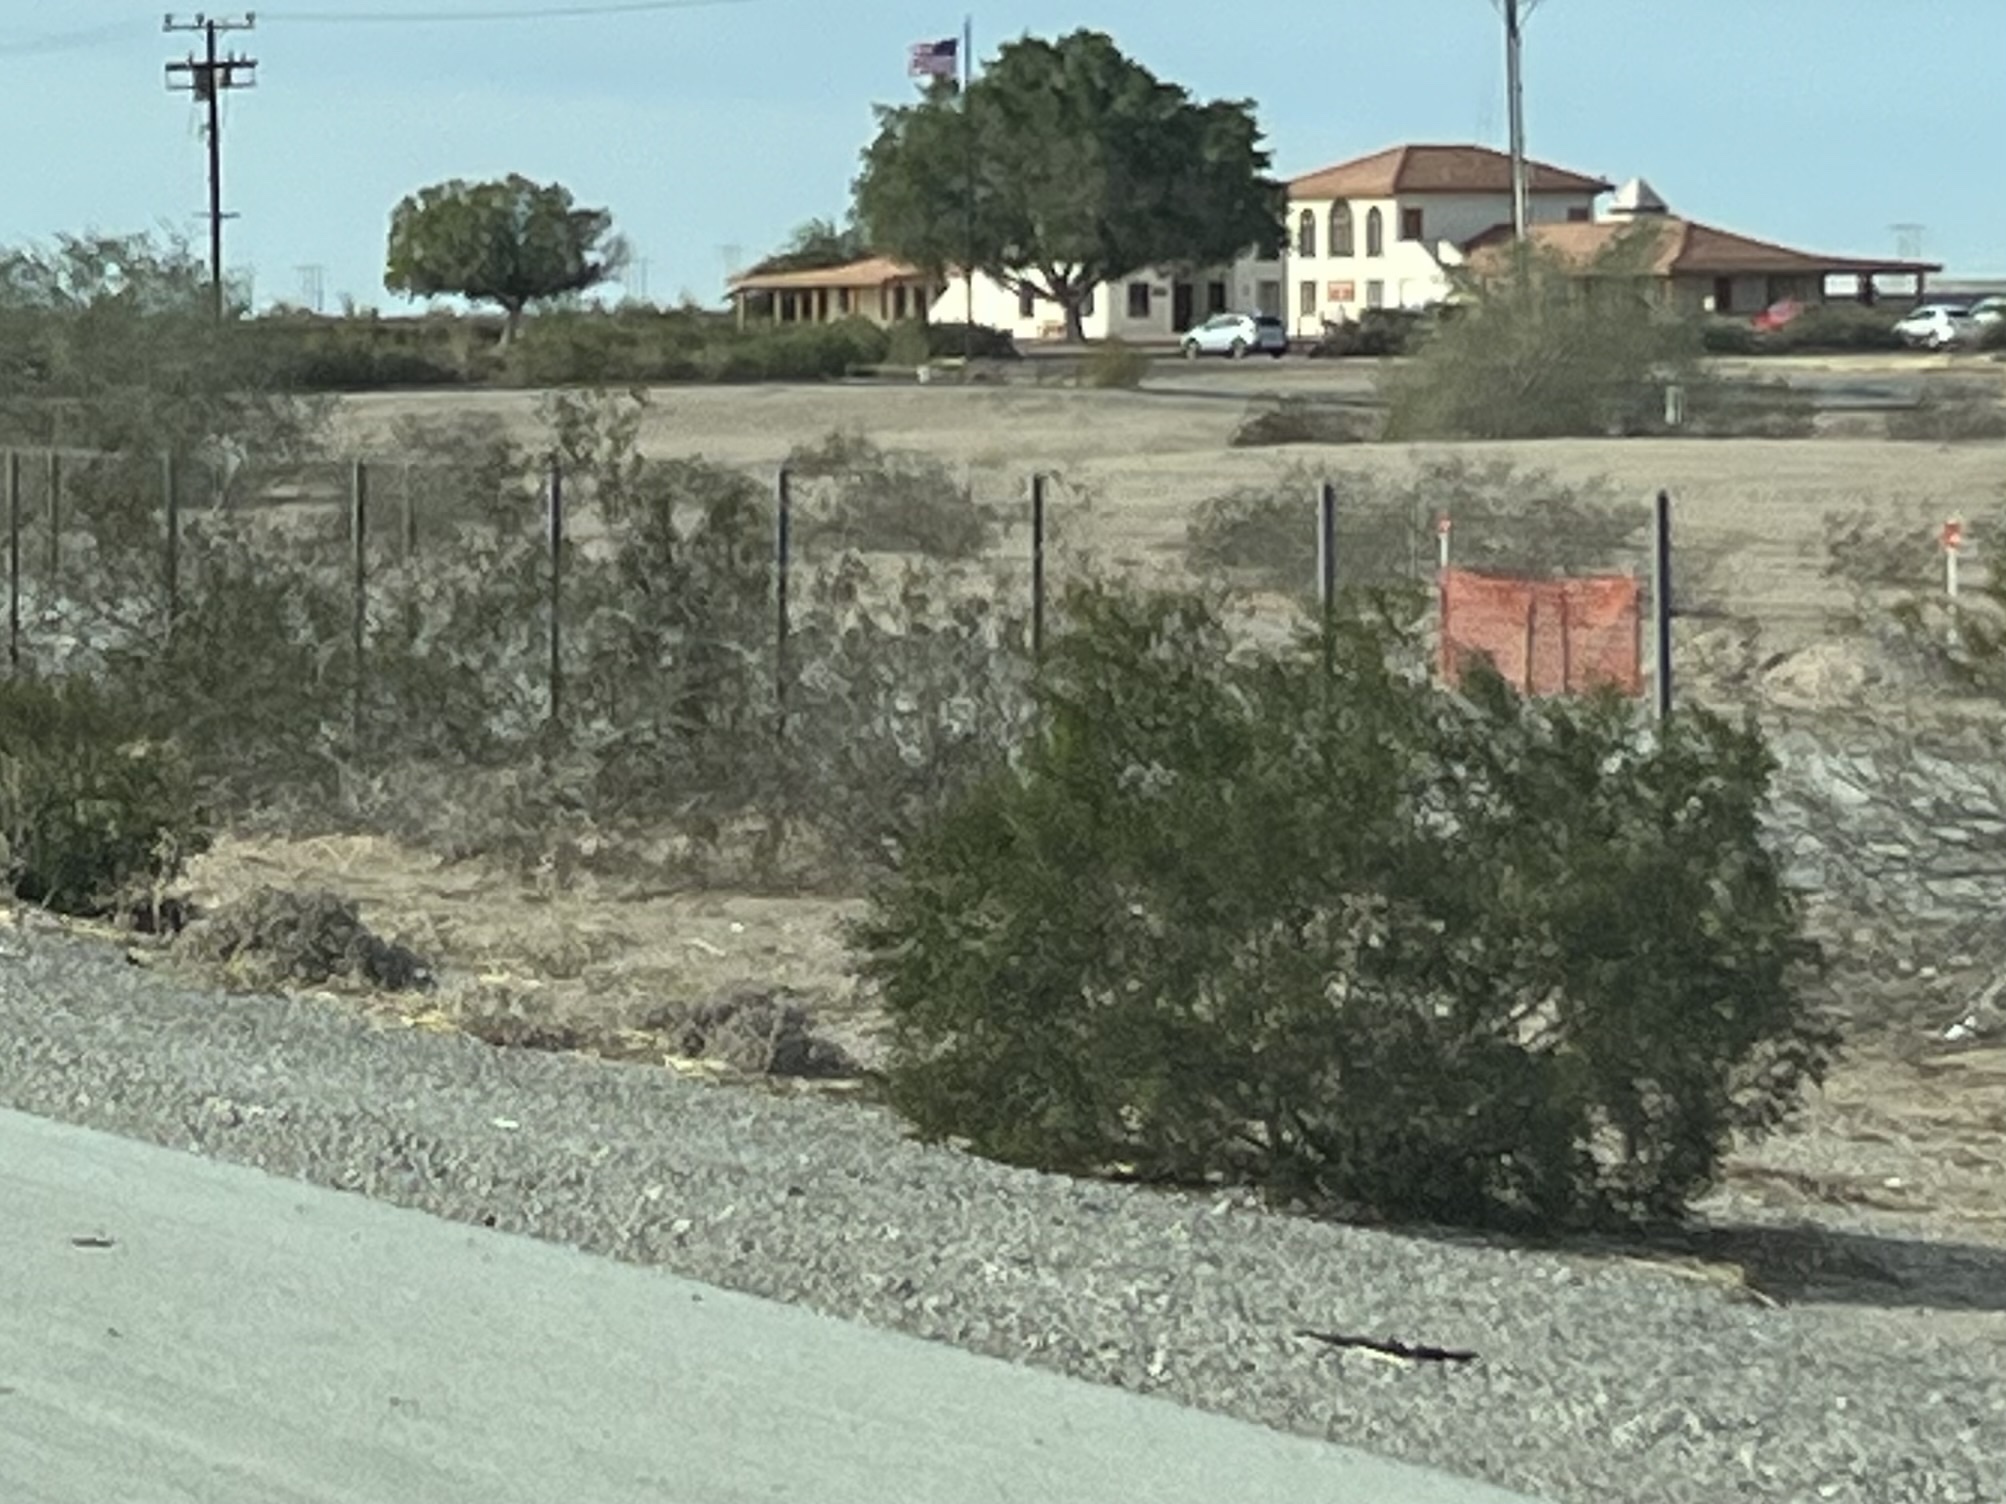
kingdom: Plantae
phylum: Tracheophyta
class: Magnoliopsida
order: Zygophyllales
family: Zygophyllaceae
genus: Larrea
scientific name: Larrea tridentata
